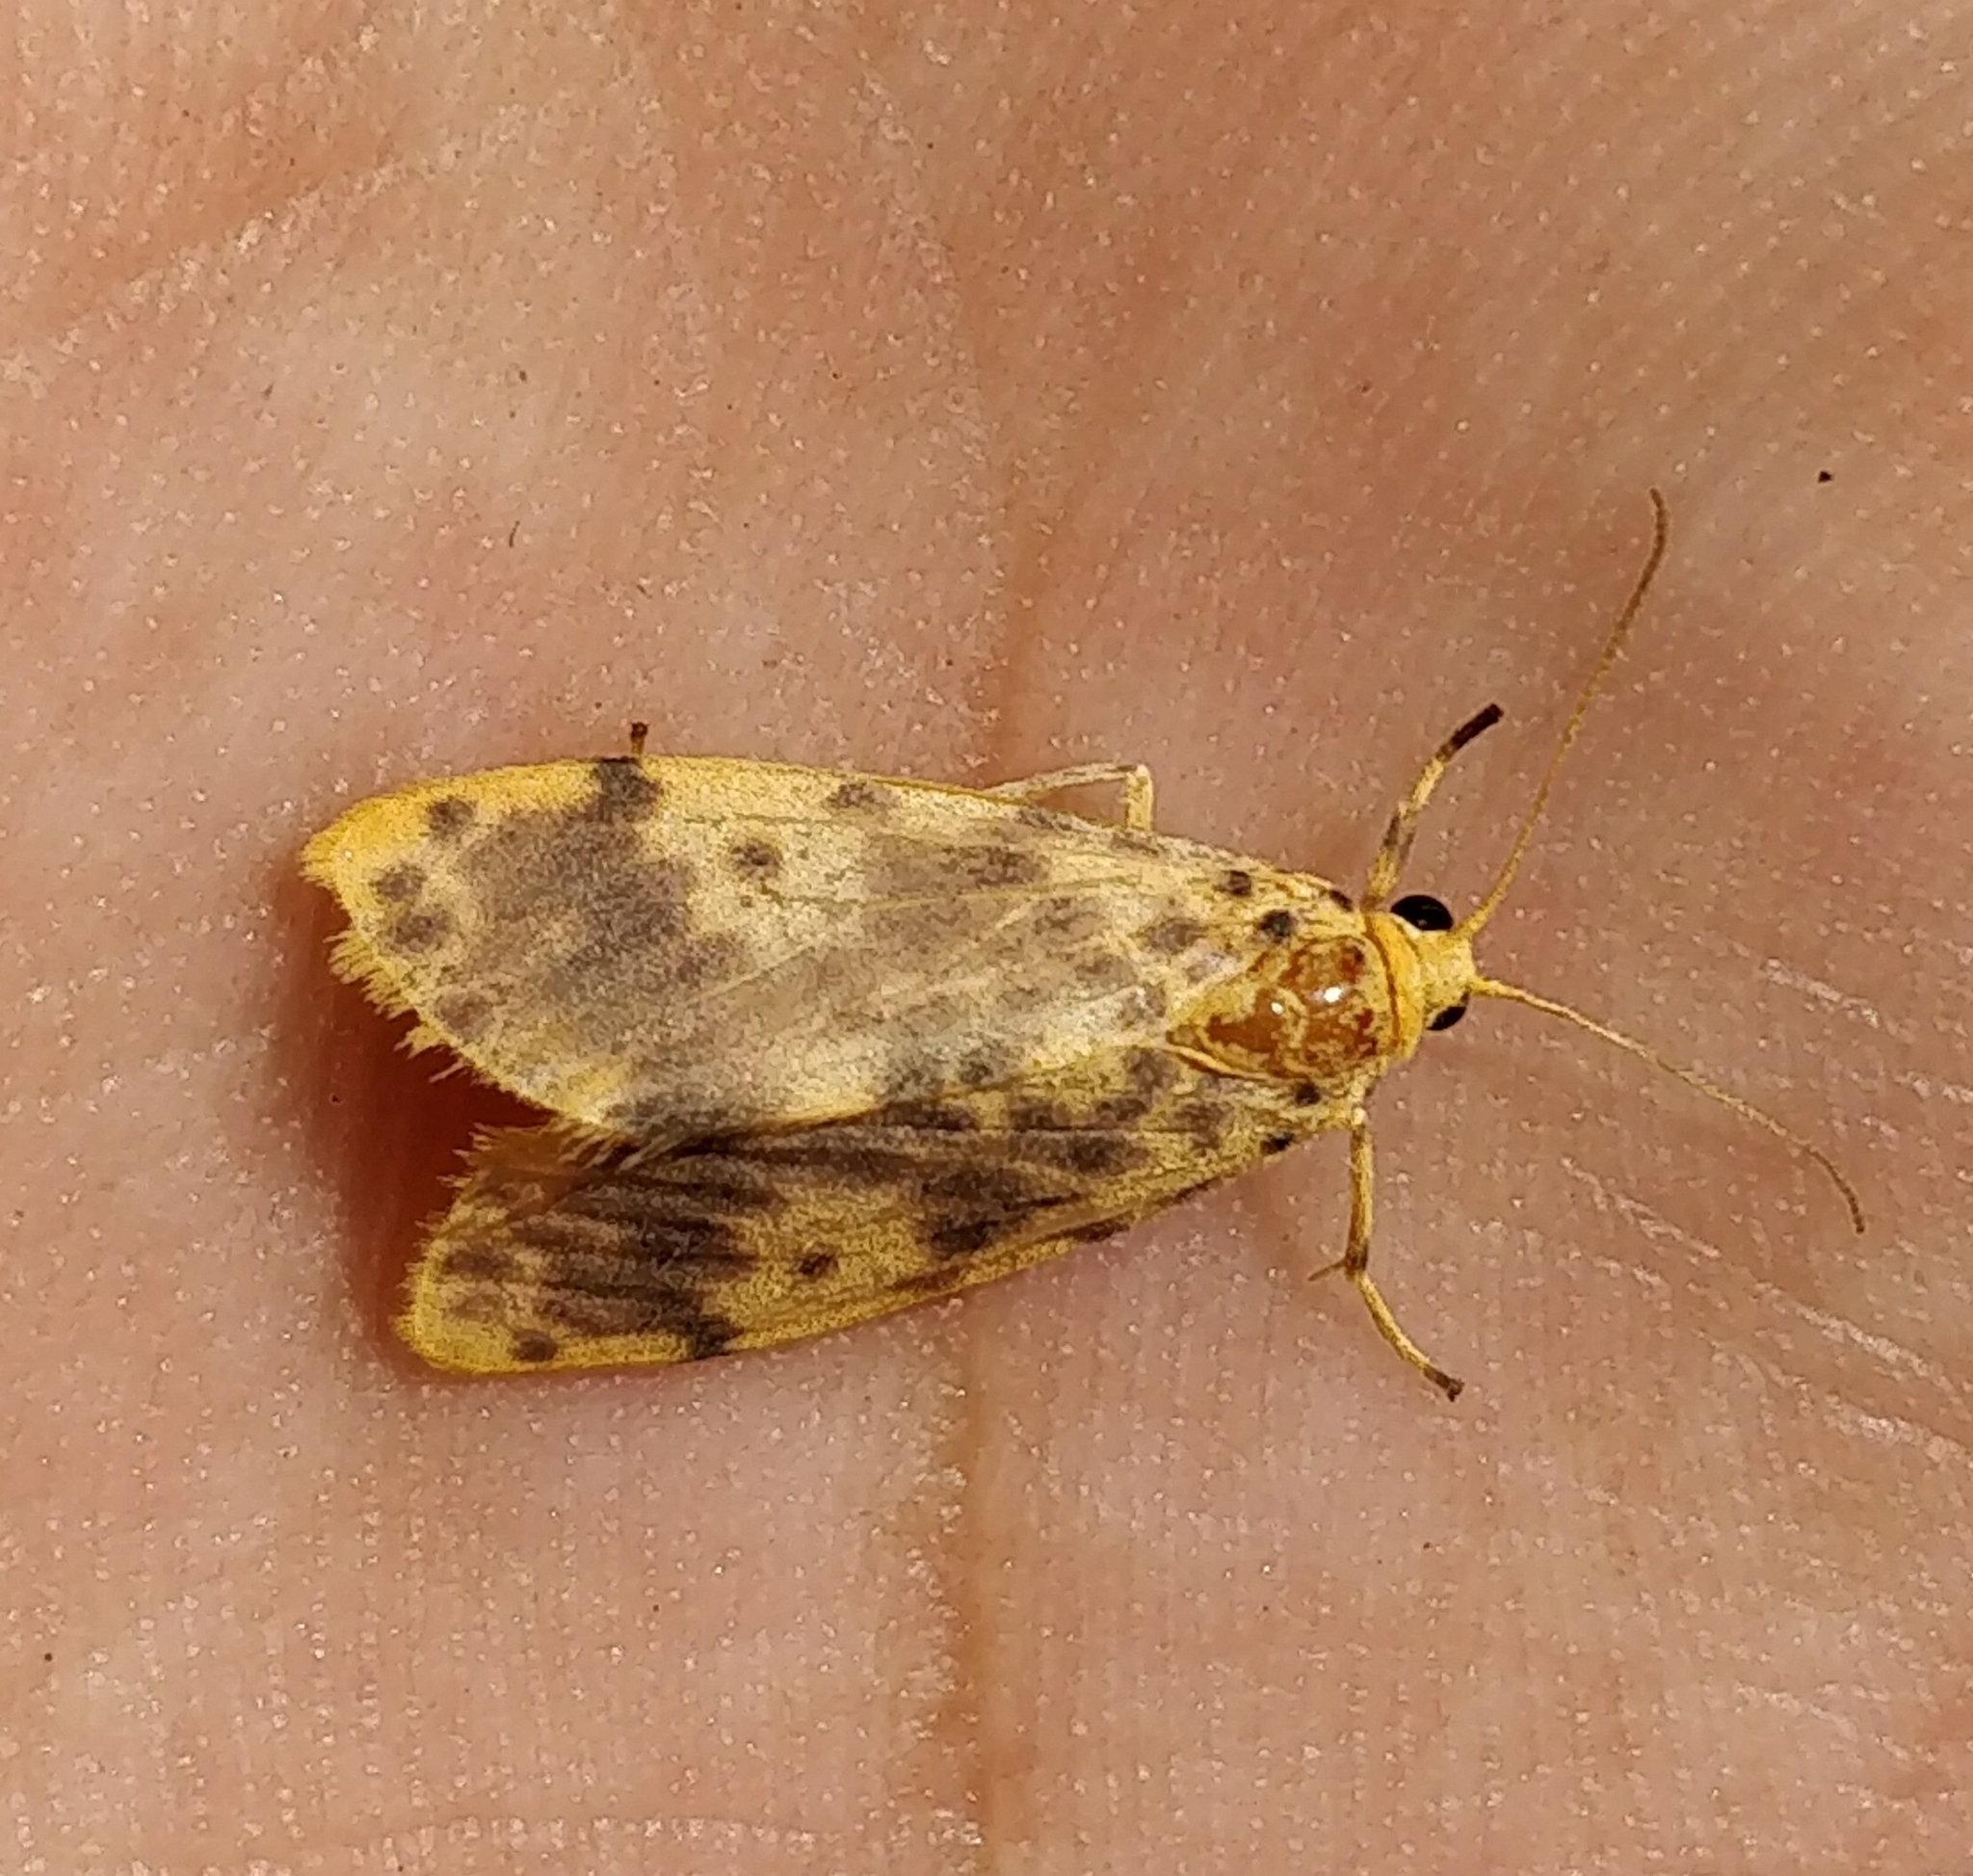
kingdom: Animalia
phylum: Arthropoda
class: Insecta
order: Lepidoptera
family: Erebidae
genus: Miltochrista
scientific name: Miltochrista semifascia
